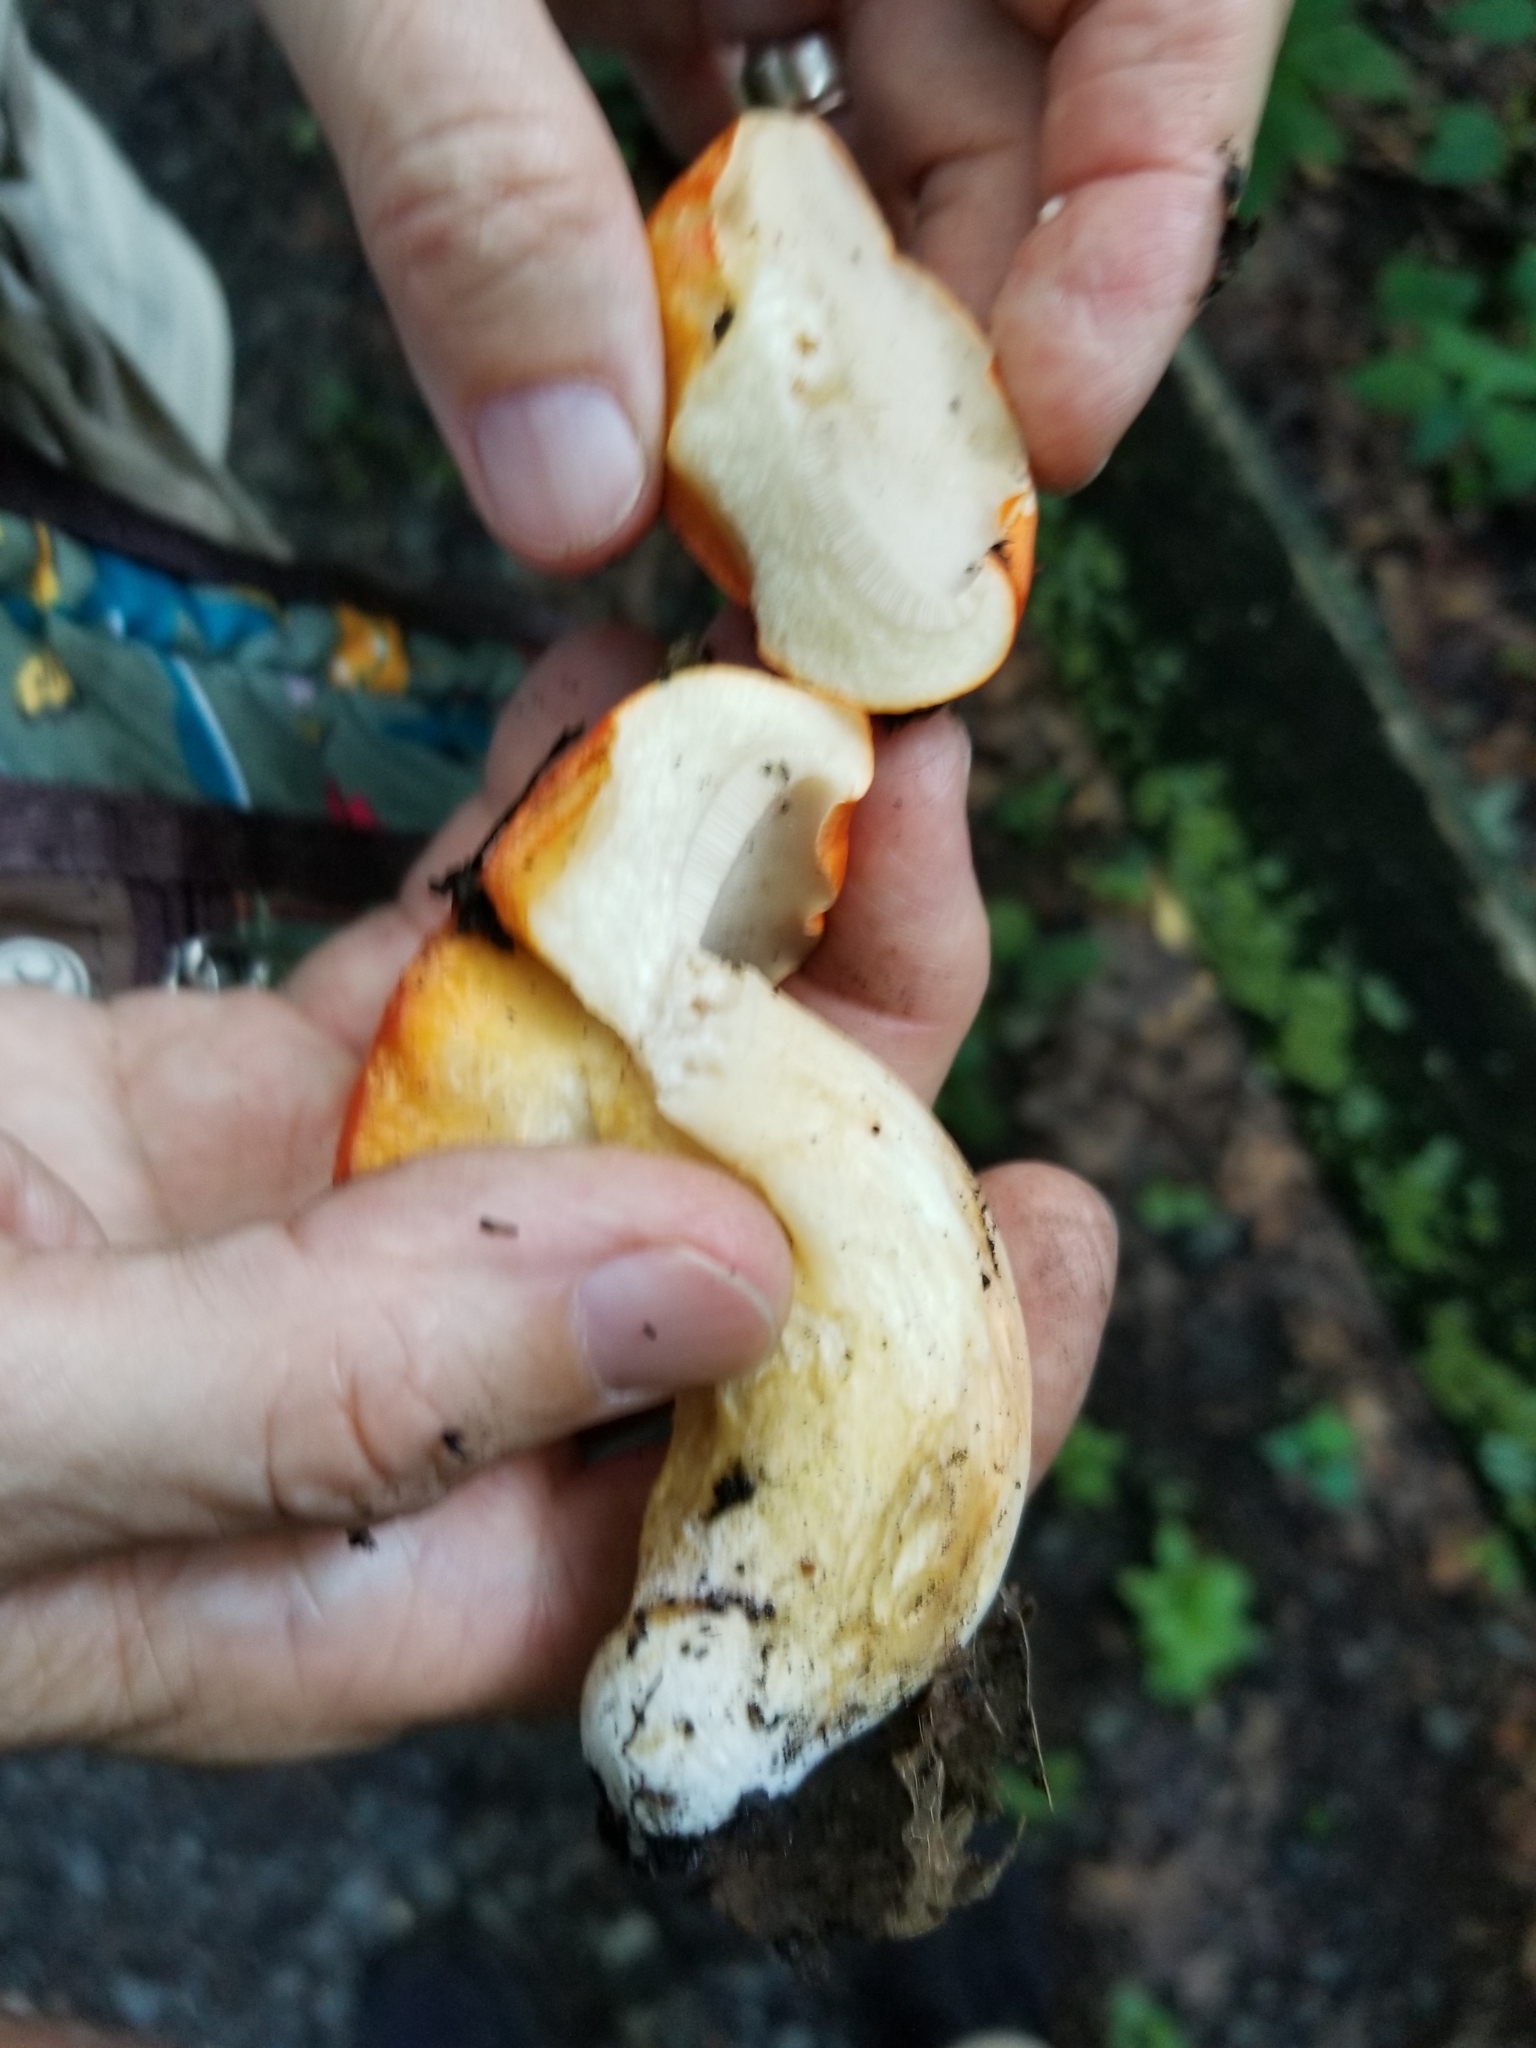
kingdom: Fungi
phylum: Basidiomycota
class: Agaricomycetes
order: Boletales
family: Boletaceae
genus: Tylopilus
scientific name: Tylopilus balloui
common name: Burnt-orange bolete
